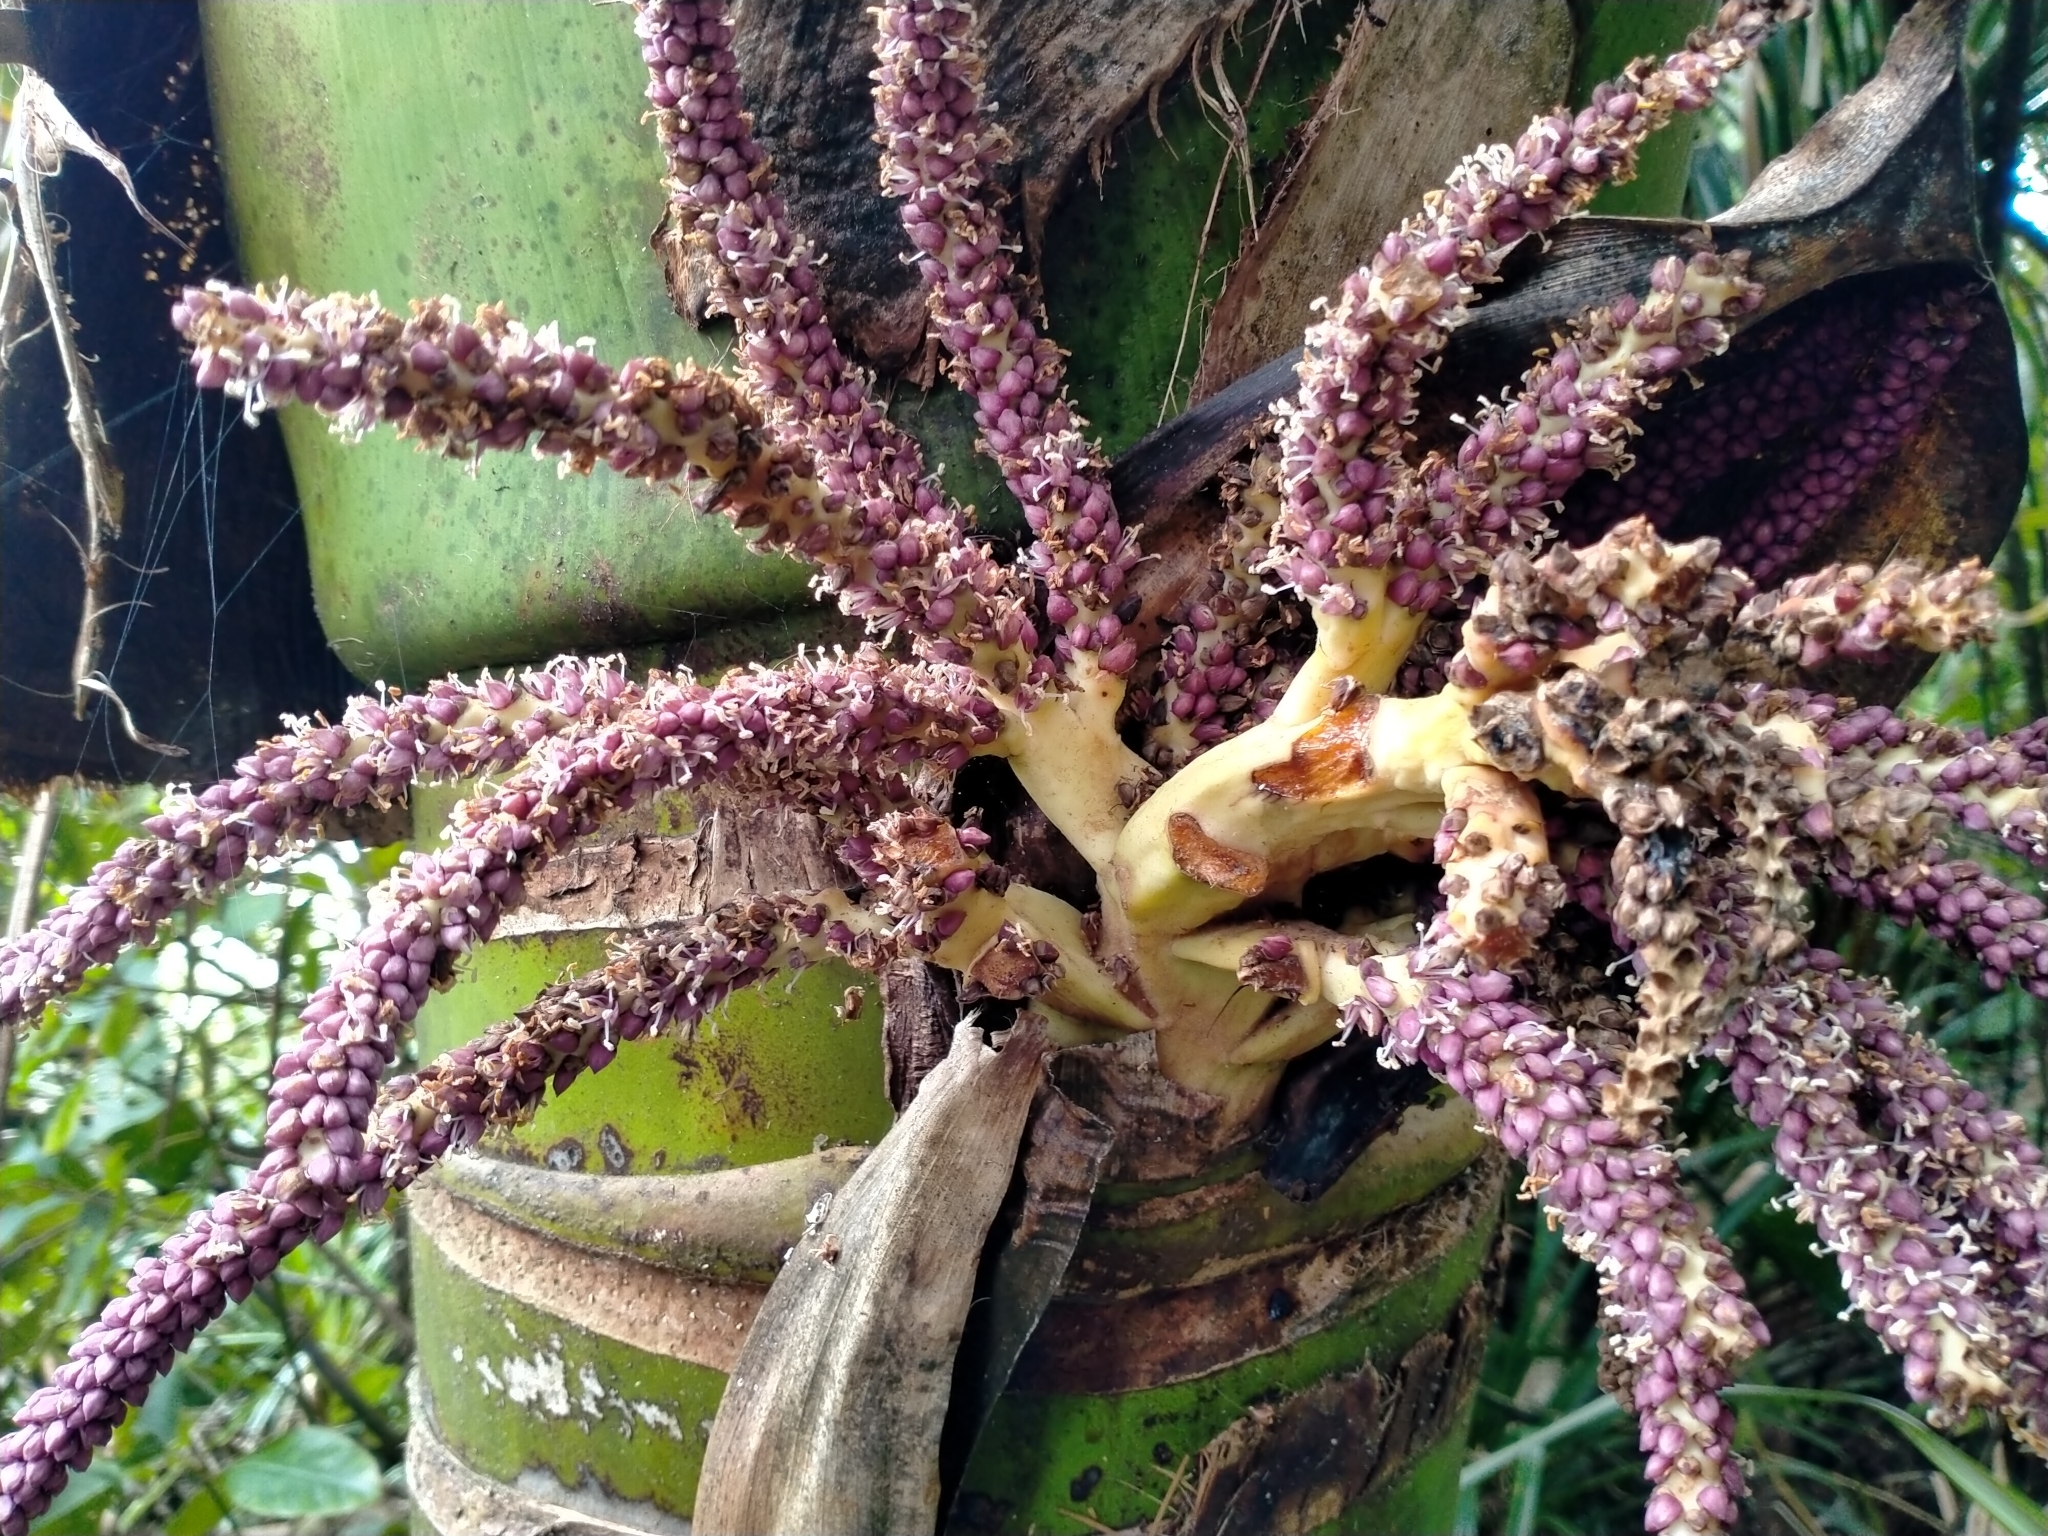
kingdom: Plantae
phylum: Tracheophyta
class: Liliopsida
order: Arecales
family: Arecaceae
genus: Rhopalostylis
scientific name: Rhopalostylis sapida
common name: Feather-duster palm
